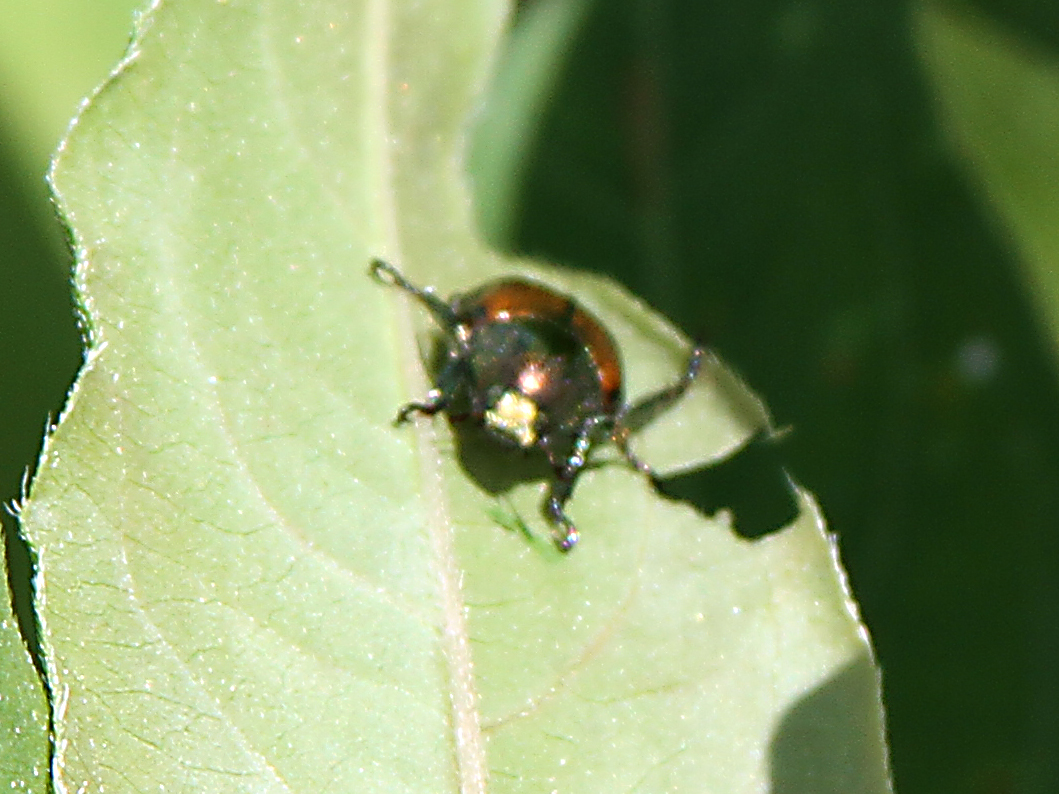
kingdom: Animalia
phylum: Arthropoda
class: Insecta
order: Coleoptera
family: Scarabaeidae
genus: Popillia
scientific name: Popillia japonica
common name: Japanese beetle
